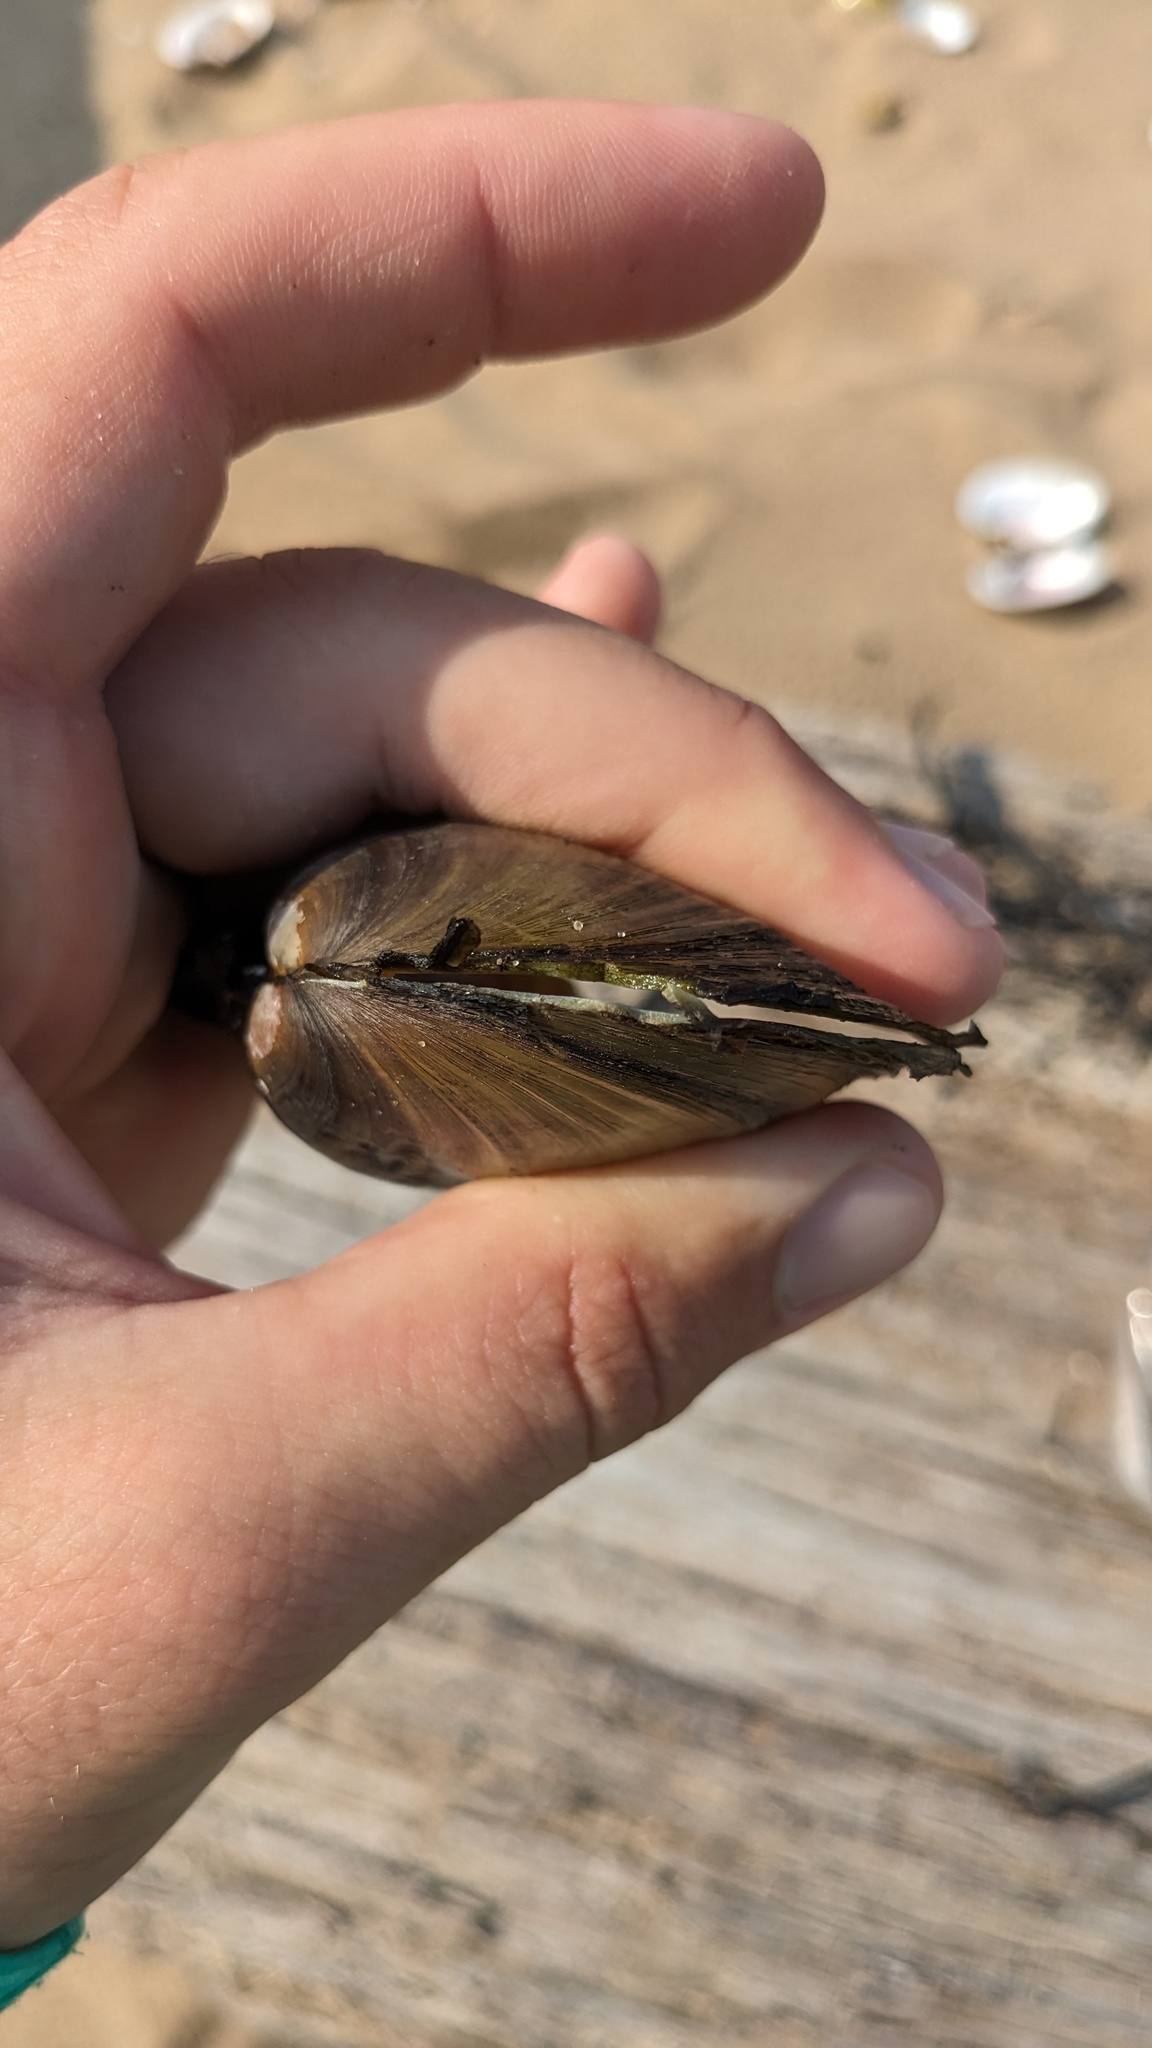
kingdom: Animalia
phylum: Mollusca
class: Bivalvia
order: Unionida
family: Unionidae
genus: Potamilus
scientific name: Potamilus fragilis
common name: Fragile papershell
